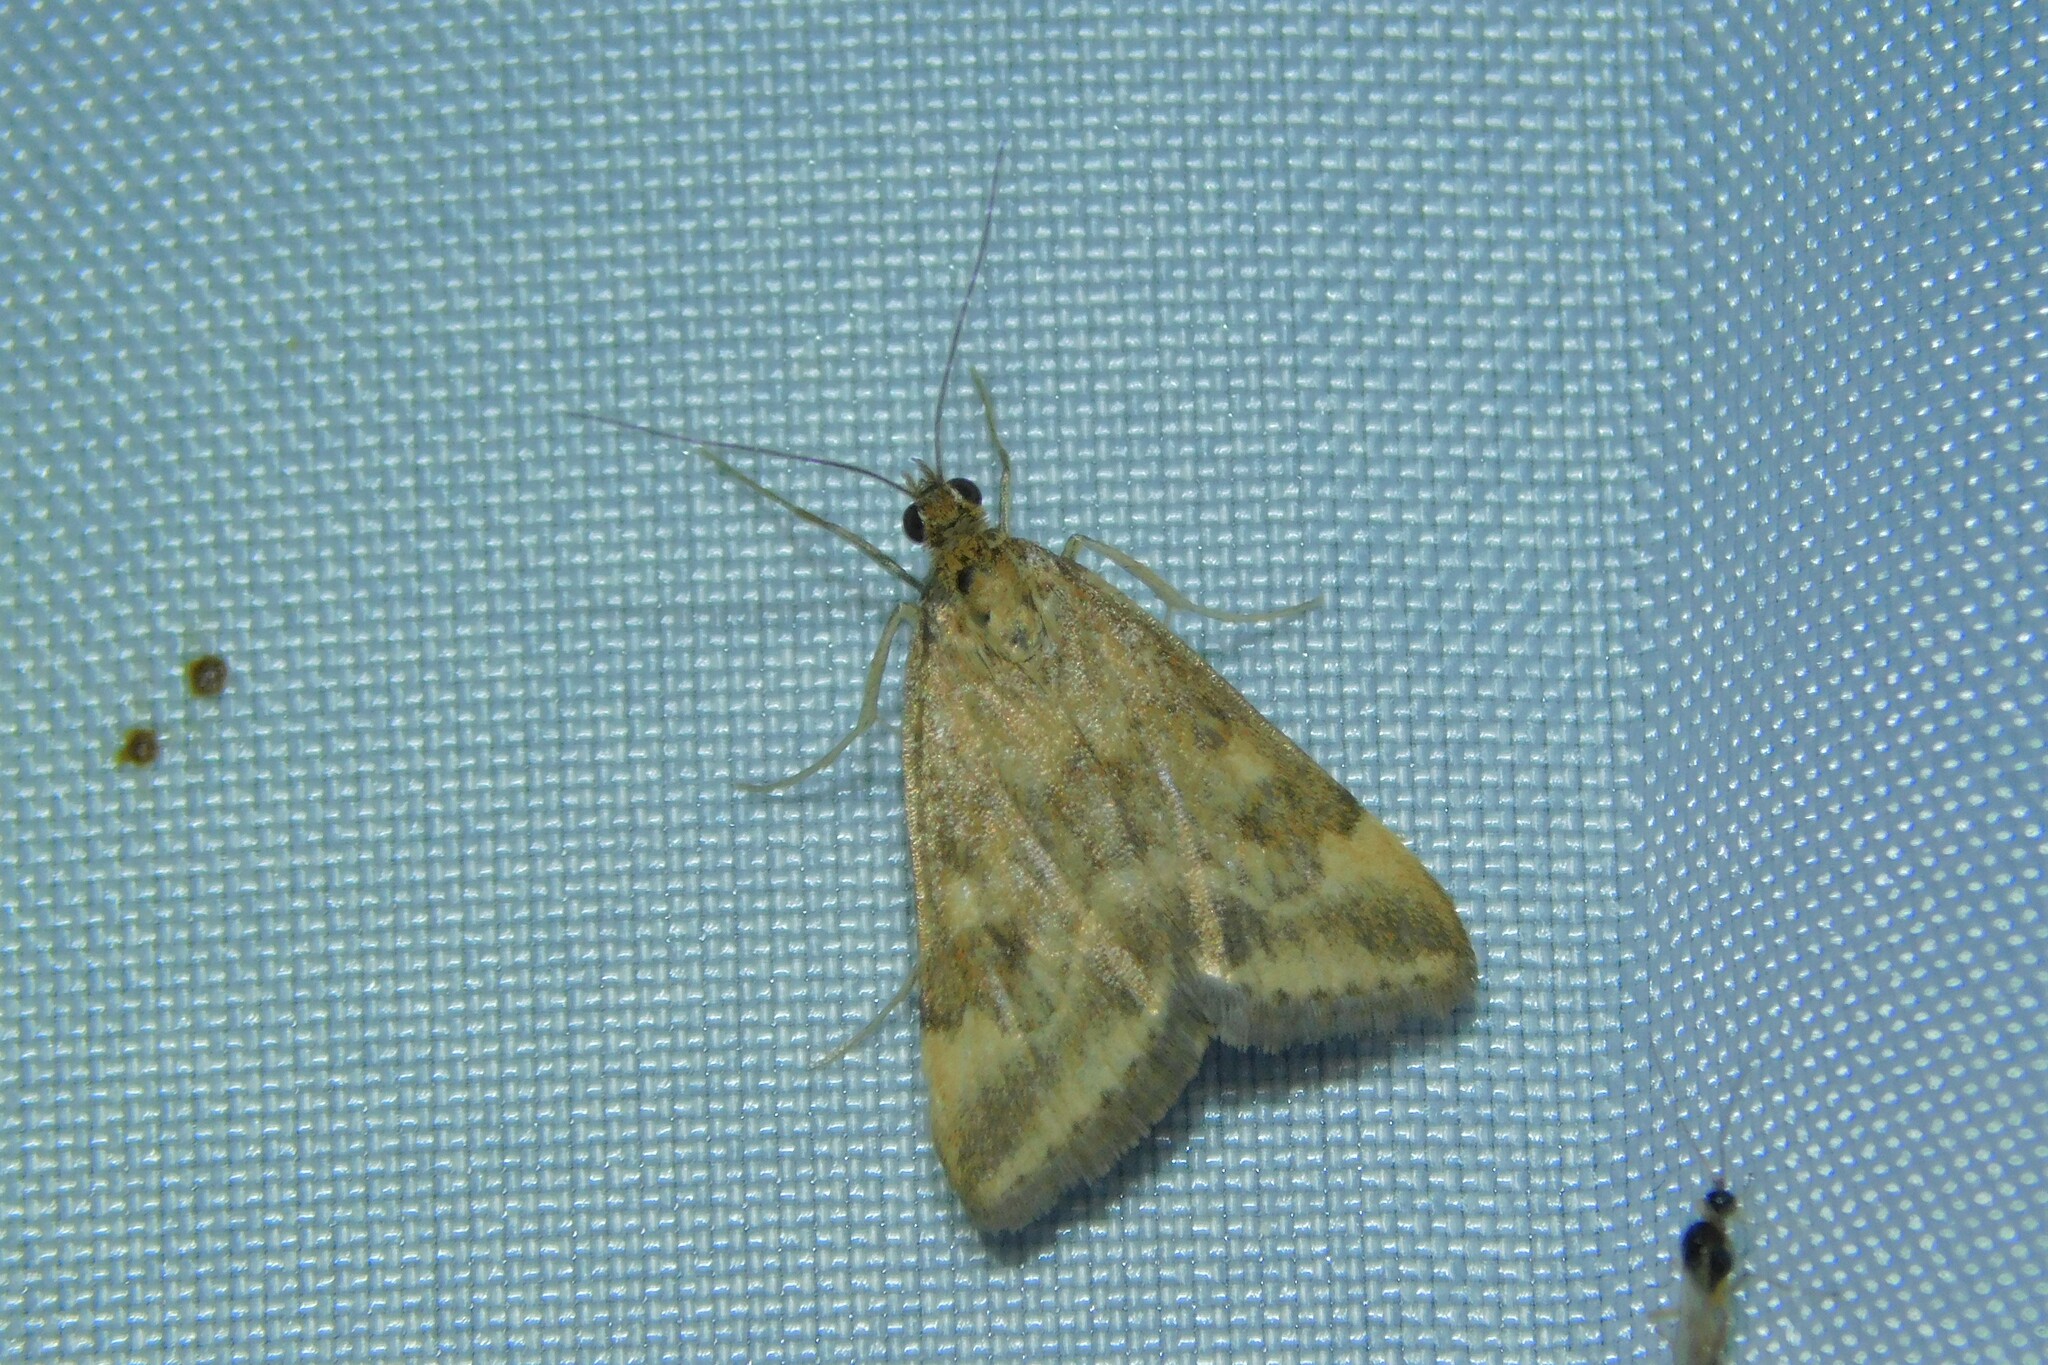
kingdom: Animalia
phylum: Arthropoda
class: Insecta
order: Lepidoptera
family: Crambidae
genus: Pyrausta
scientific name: Pyrausta despicata
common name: Straw-barred pearl
